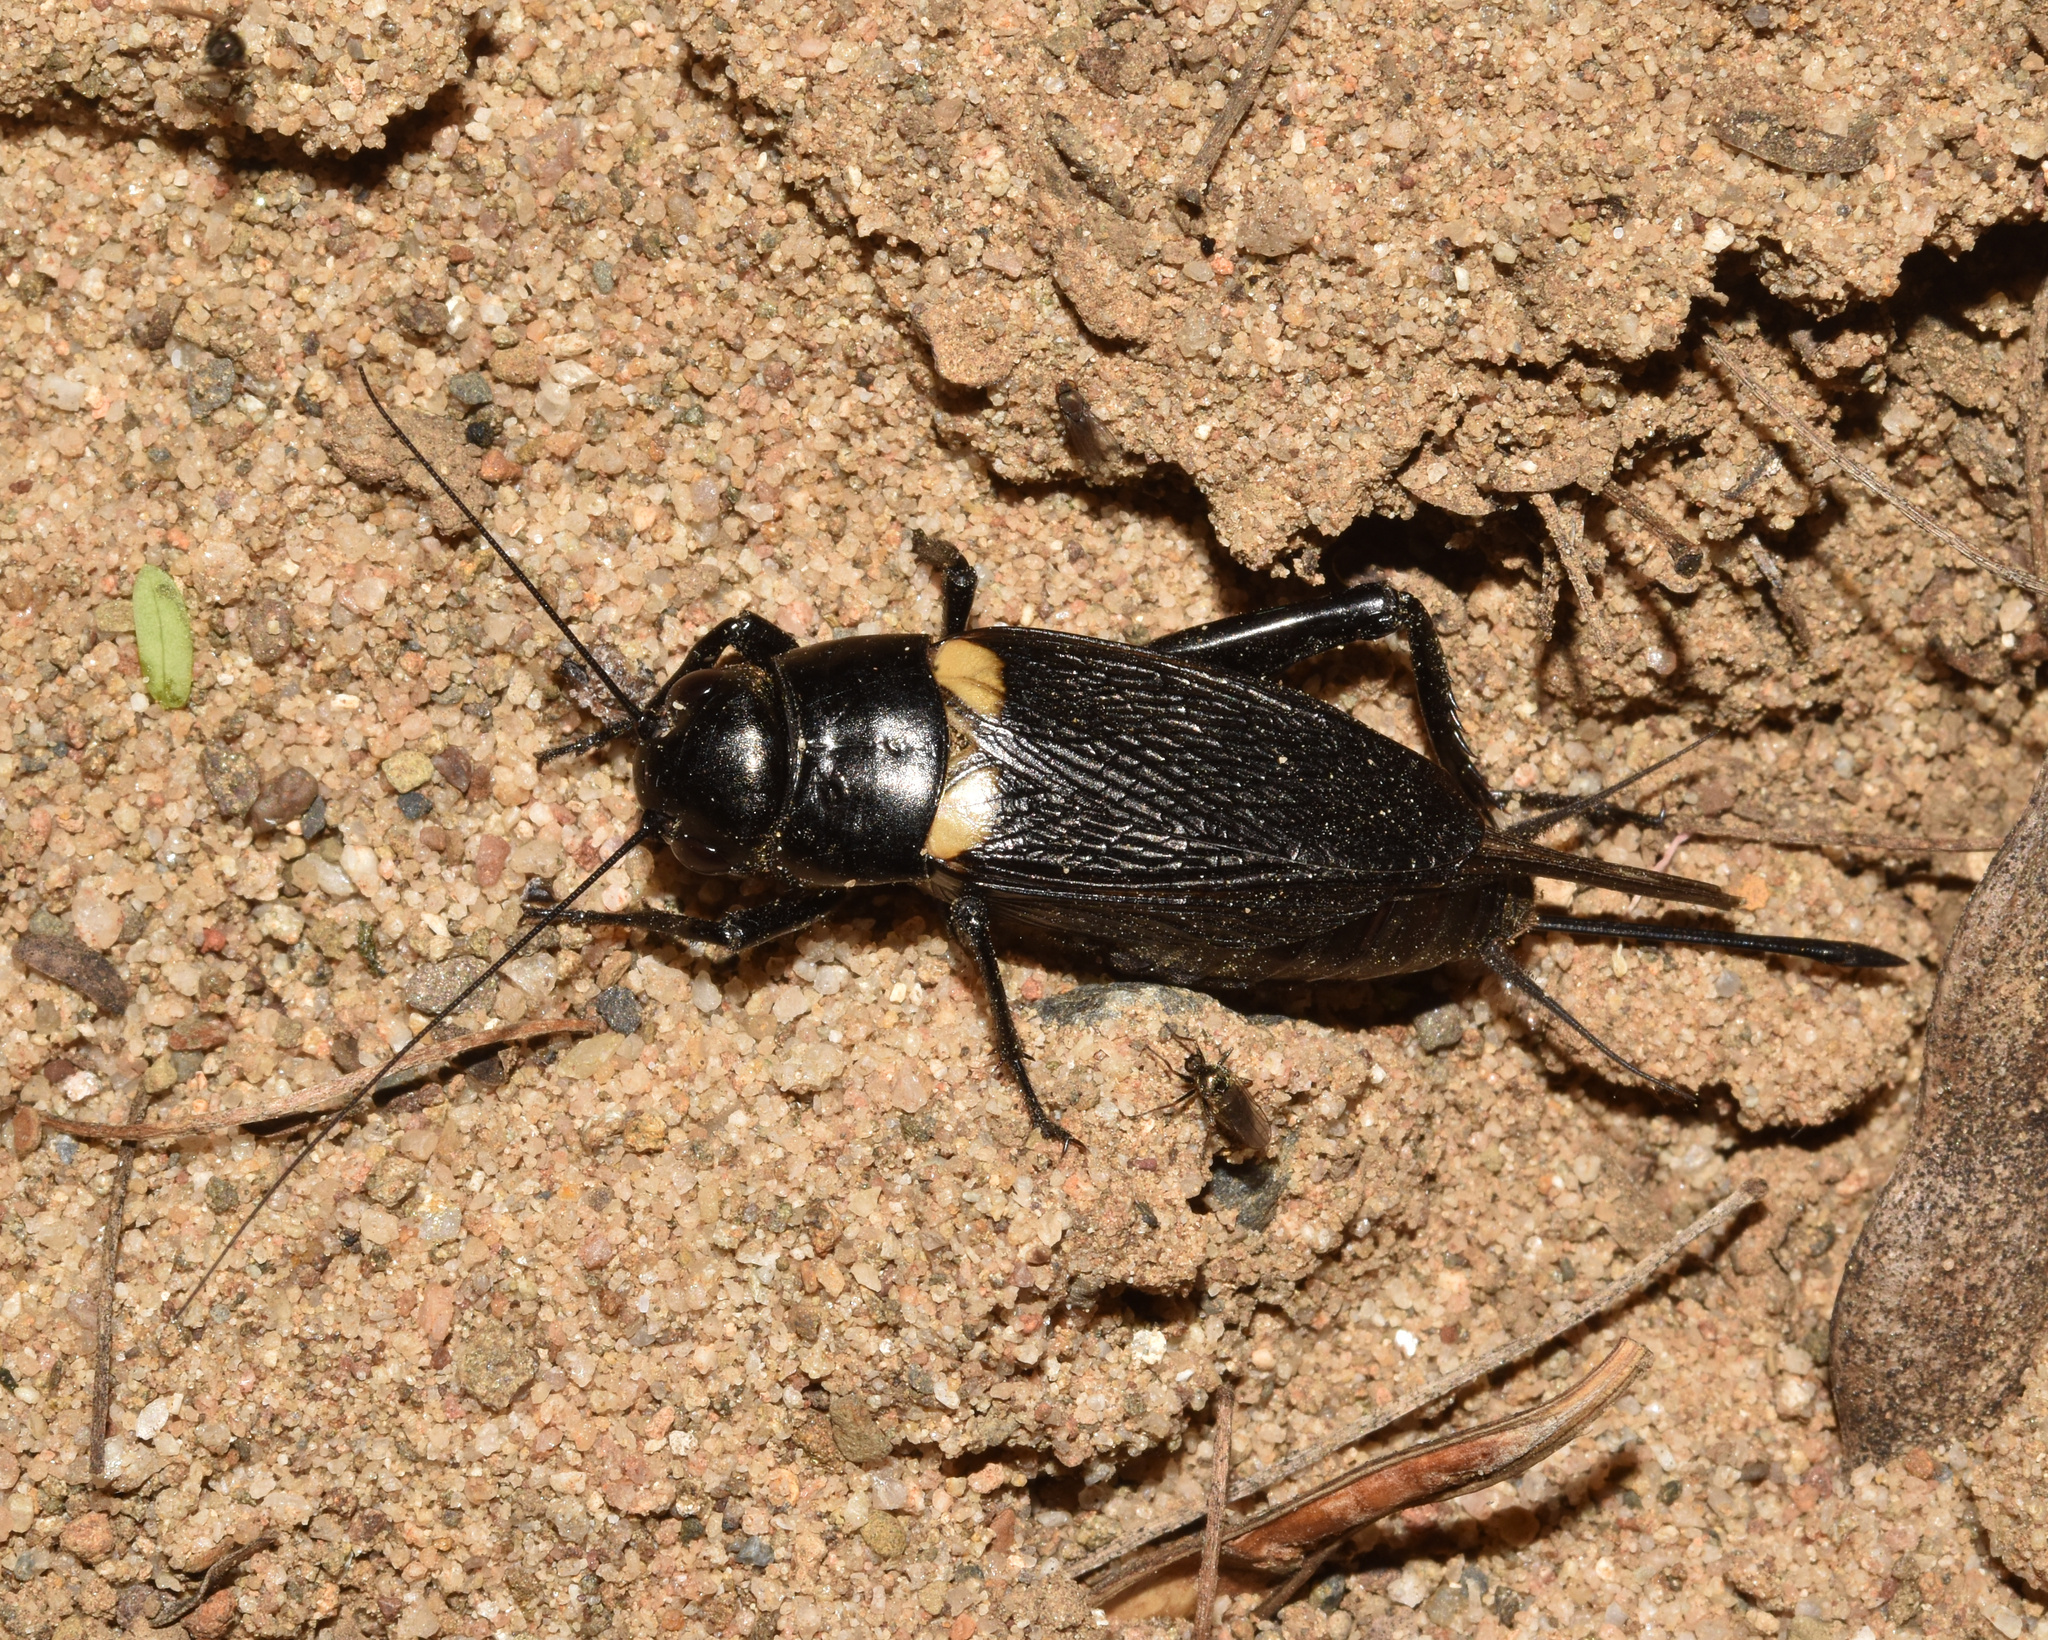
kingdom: Animalia
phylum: Arthropoda
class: Insecta
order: Orthoptera
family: Gryllidae
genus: Gryllus
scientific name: Gryllus bimaculatus
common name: Two-spotted cricket
